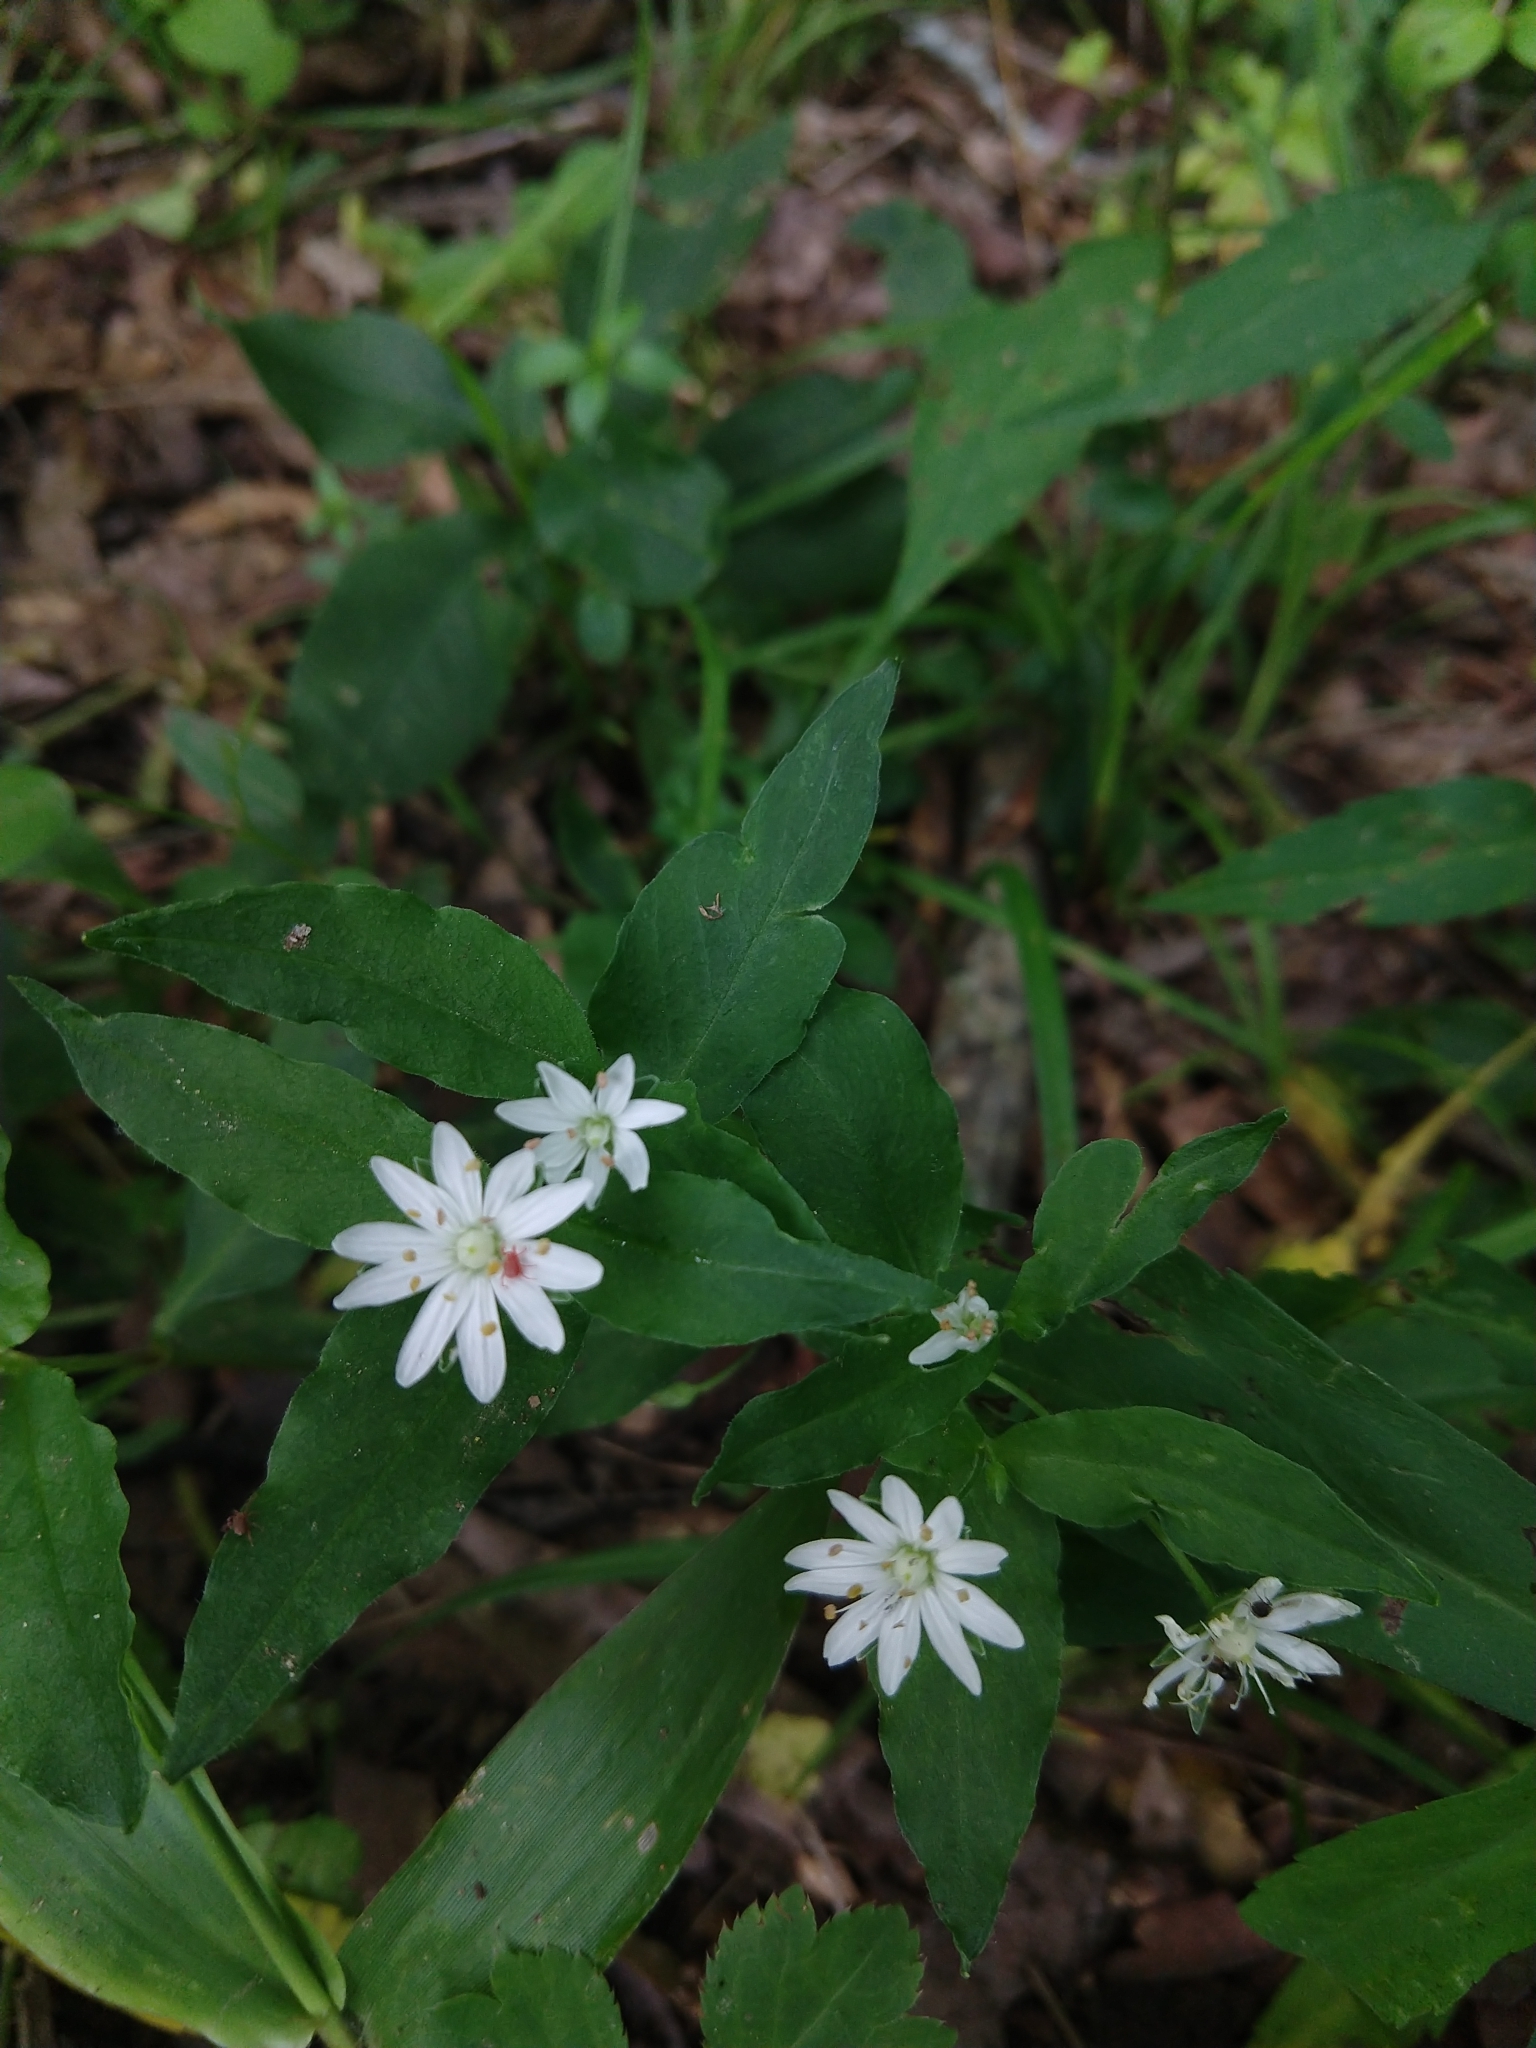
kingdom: Plantae
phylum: Tracheophyta
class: Magnoliopsida
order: Caryophyllales
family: Caryophyllaceae
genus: Stellaria
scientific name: Stellaria pubera
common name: Star chickweed
